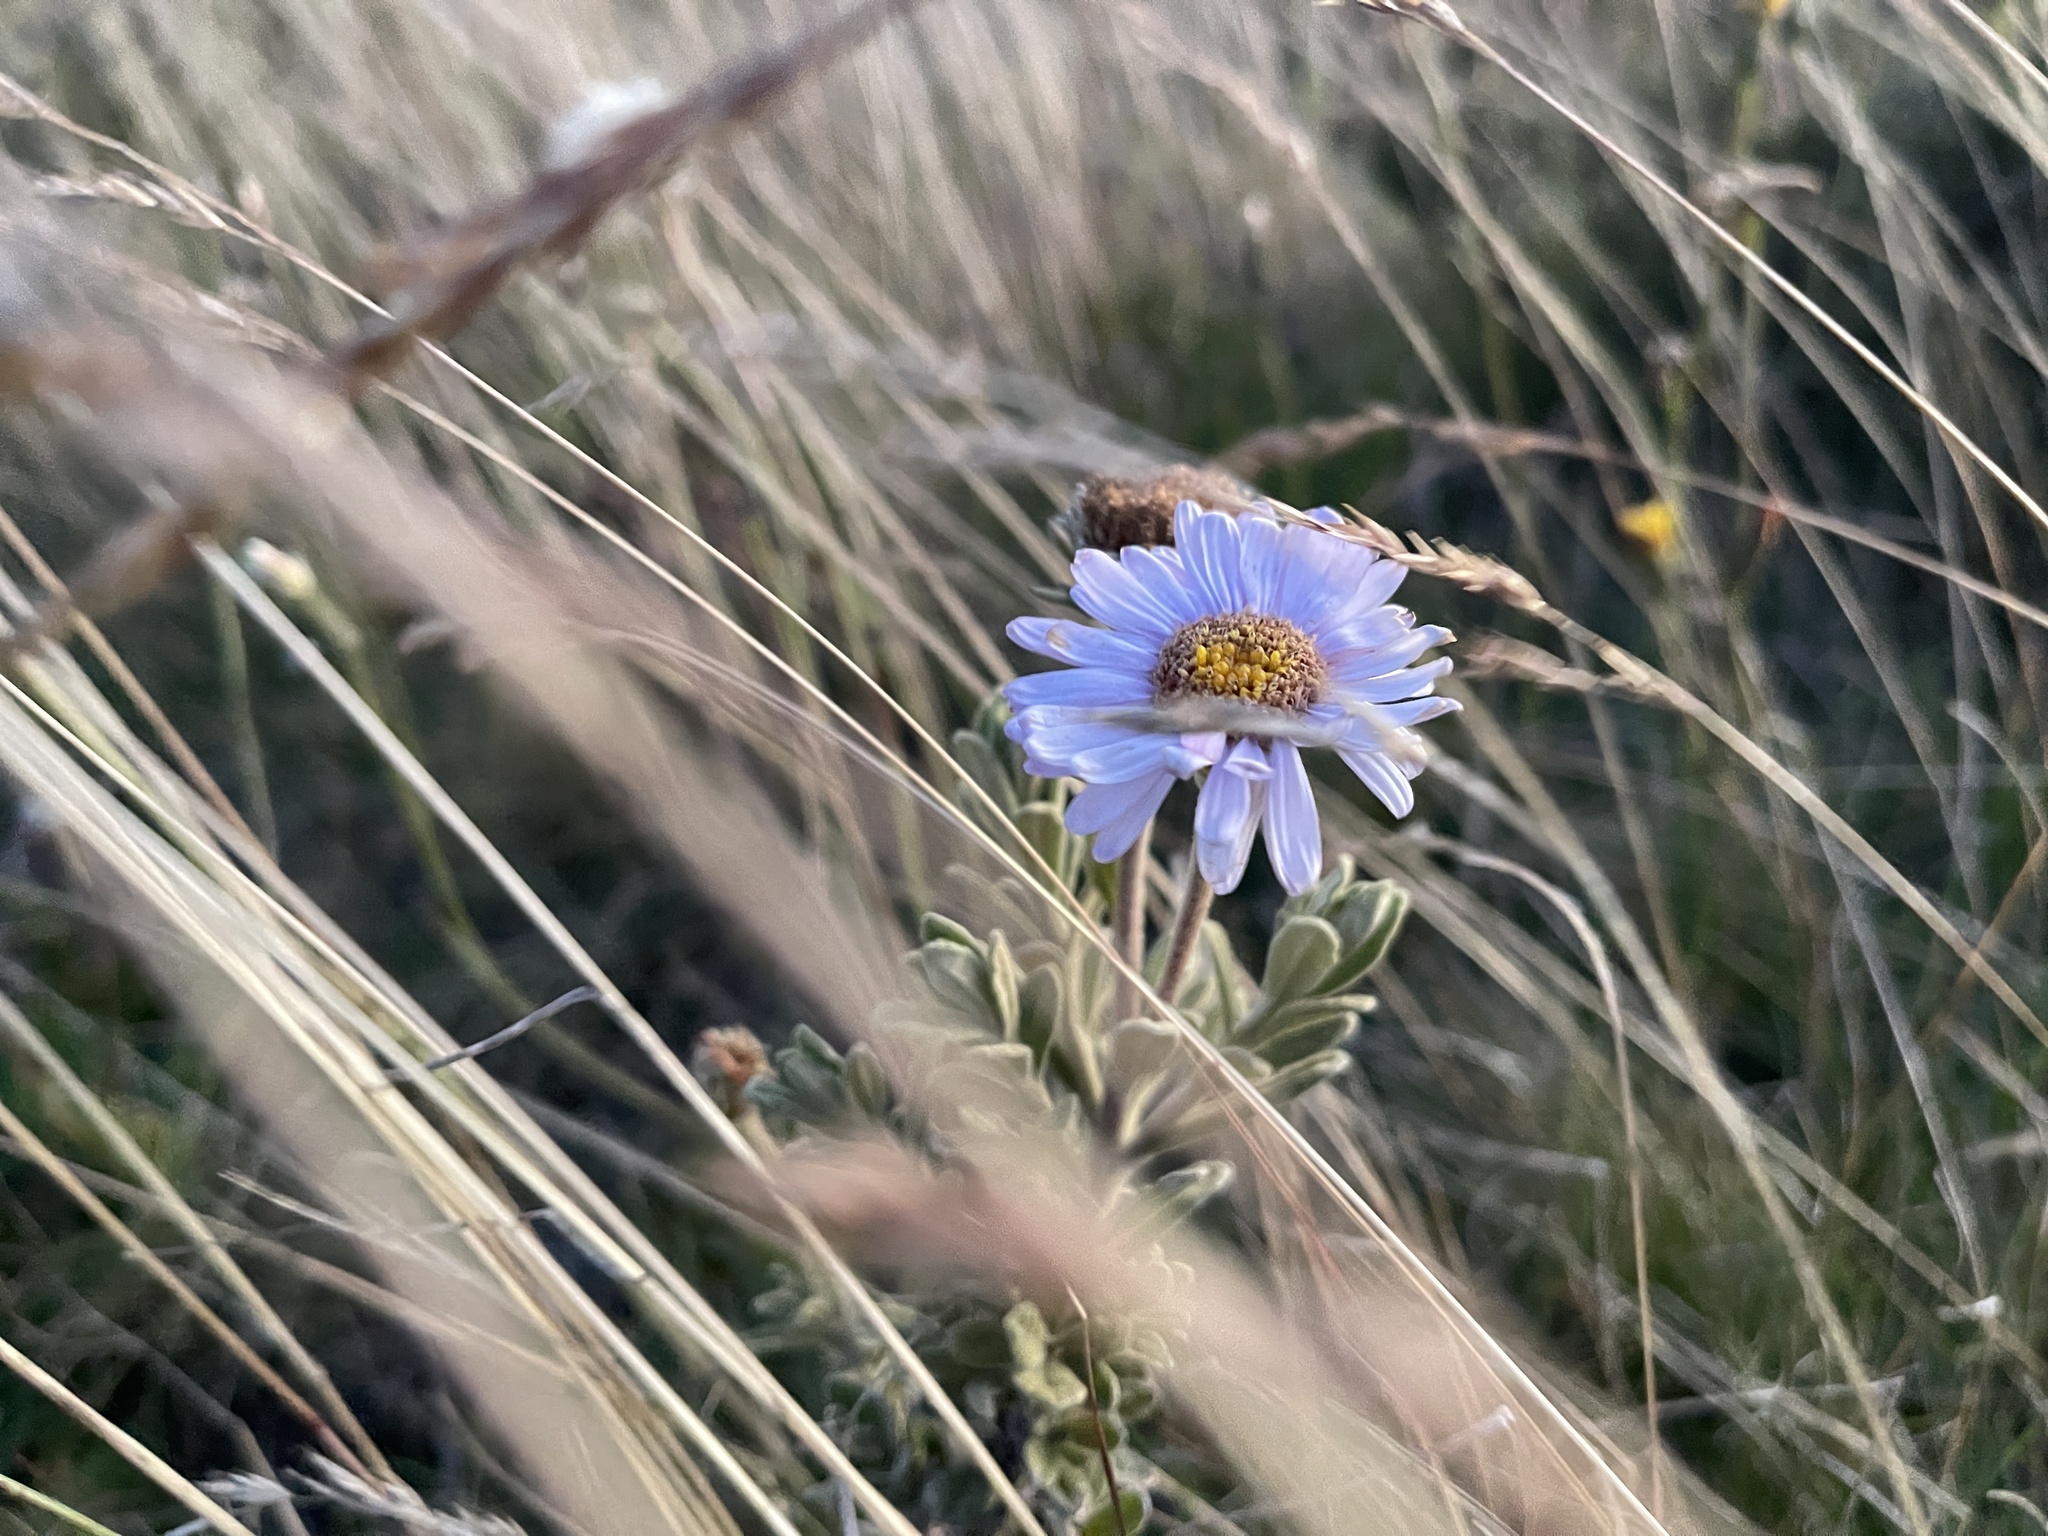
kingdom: Plantae
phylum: Tracheophyta
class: Magnoliopsida
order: Asterales
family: Asteraceae
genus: Olearia
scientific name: Olearia frostii
